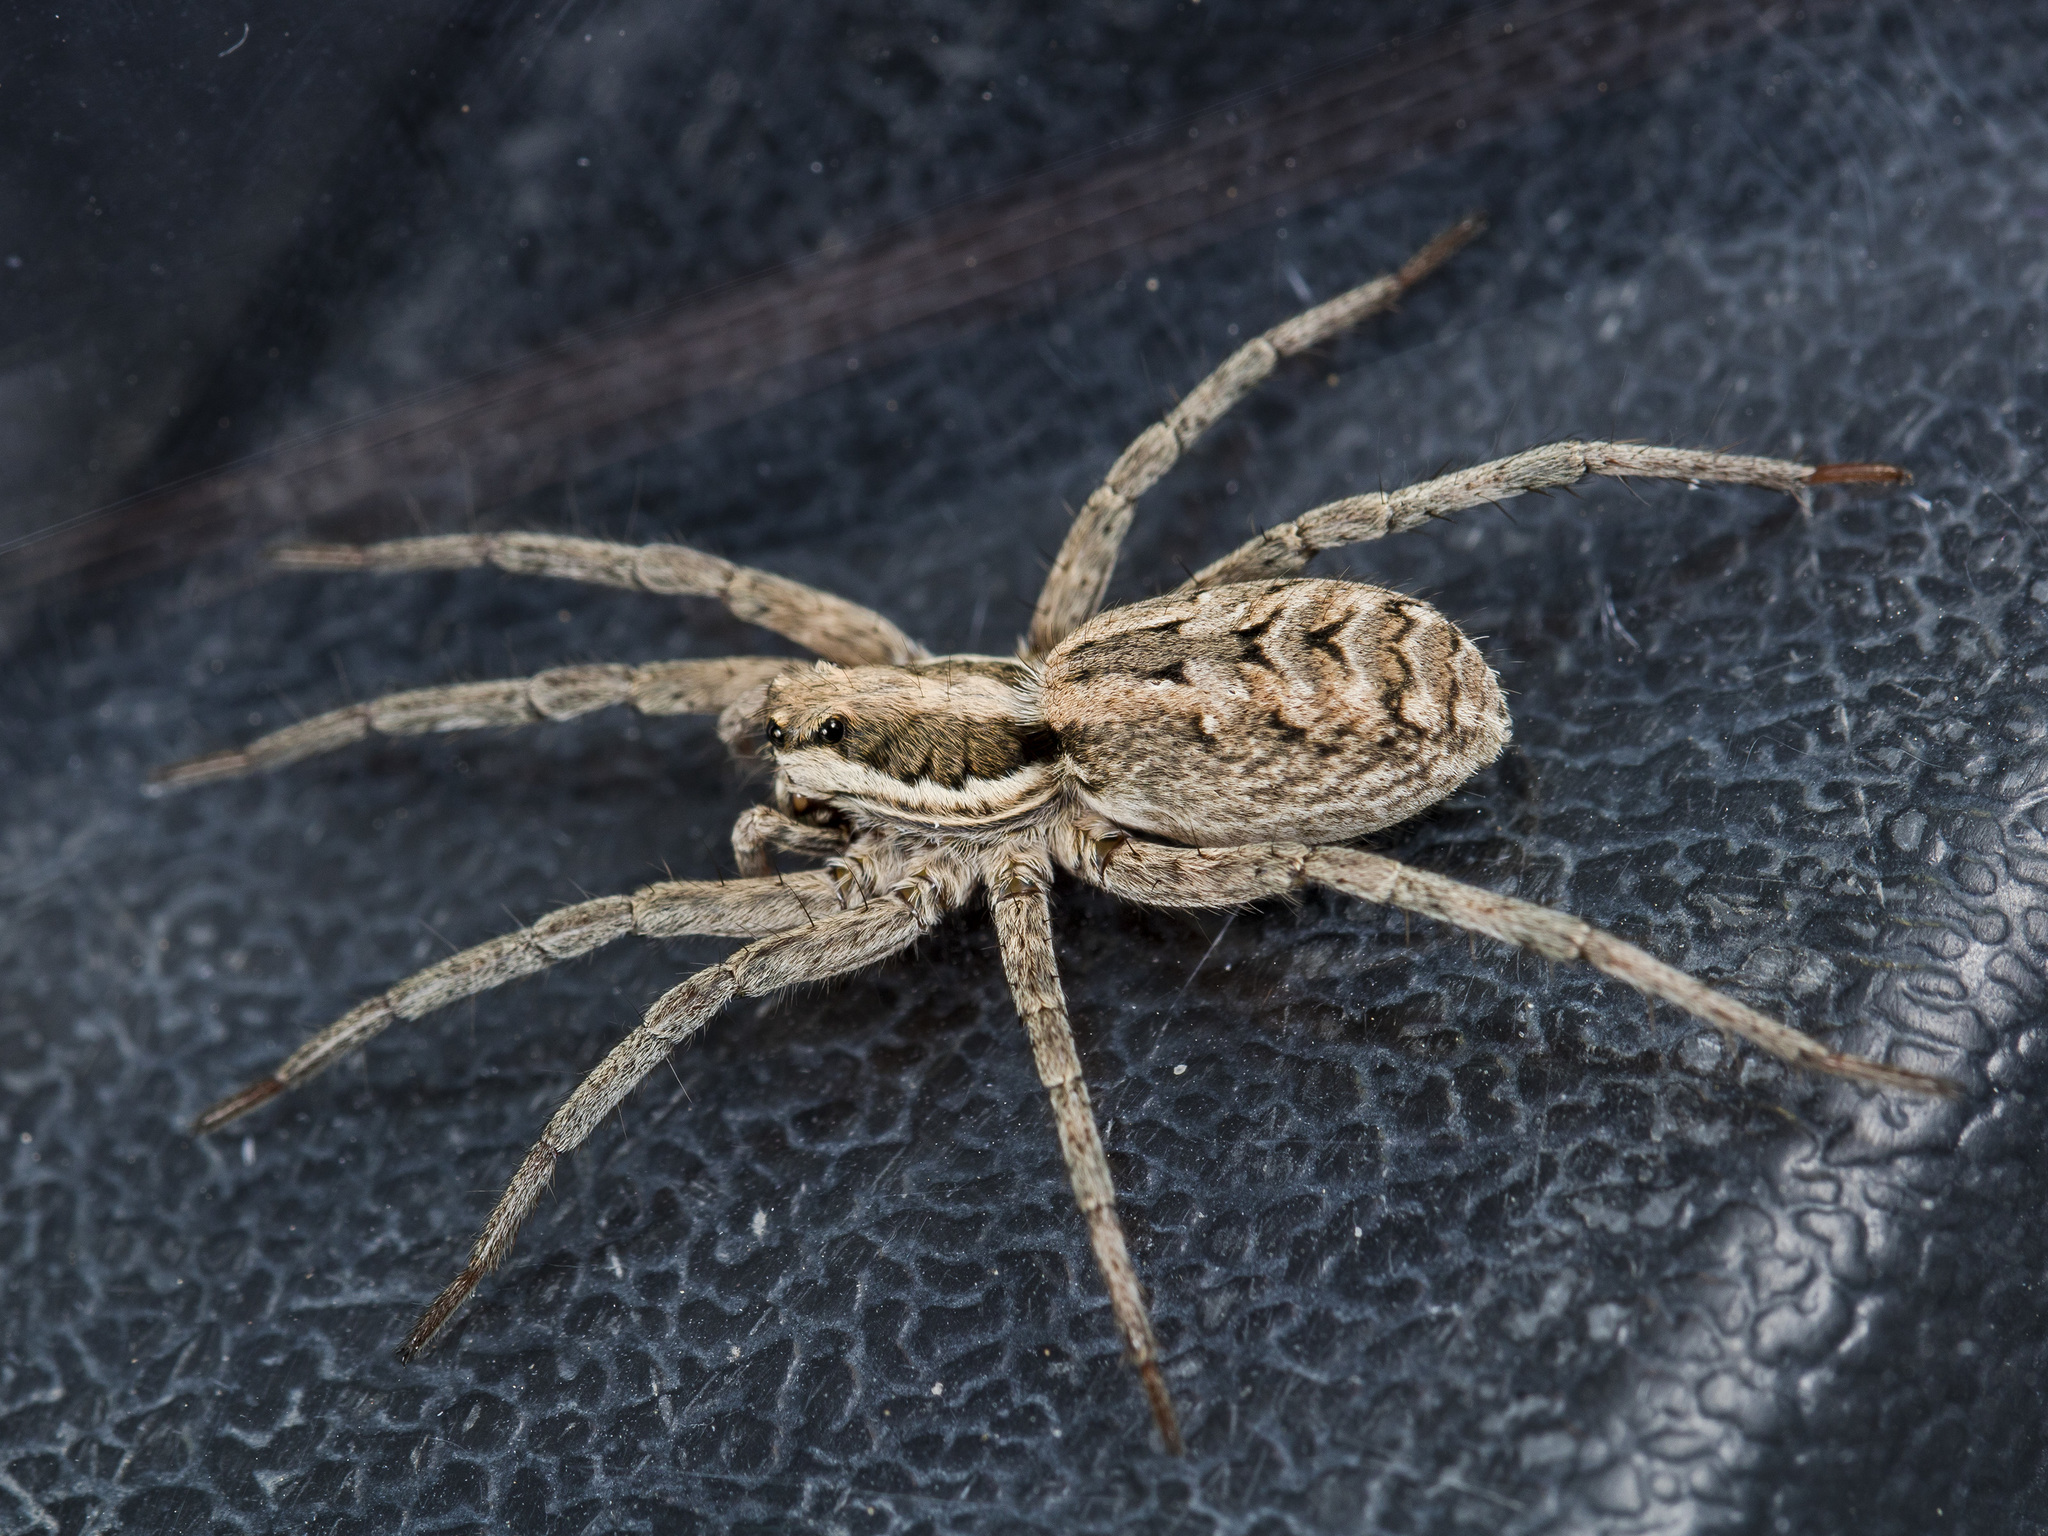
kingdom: Animalia
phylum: Arthropoda
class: Arachnida
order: Araneae
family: Lycosidae
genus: Lycosa
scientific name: Lycosa praegrandis
